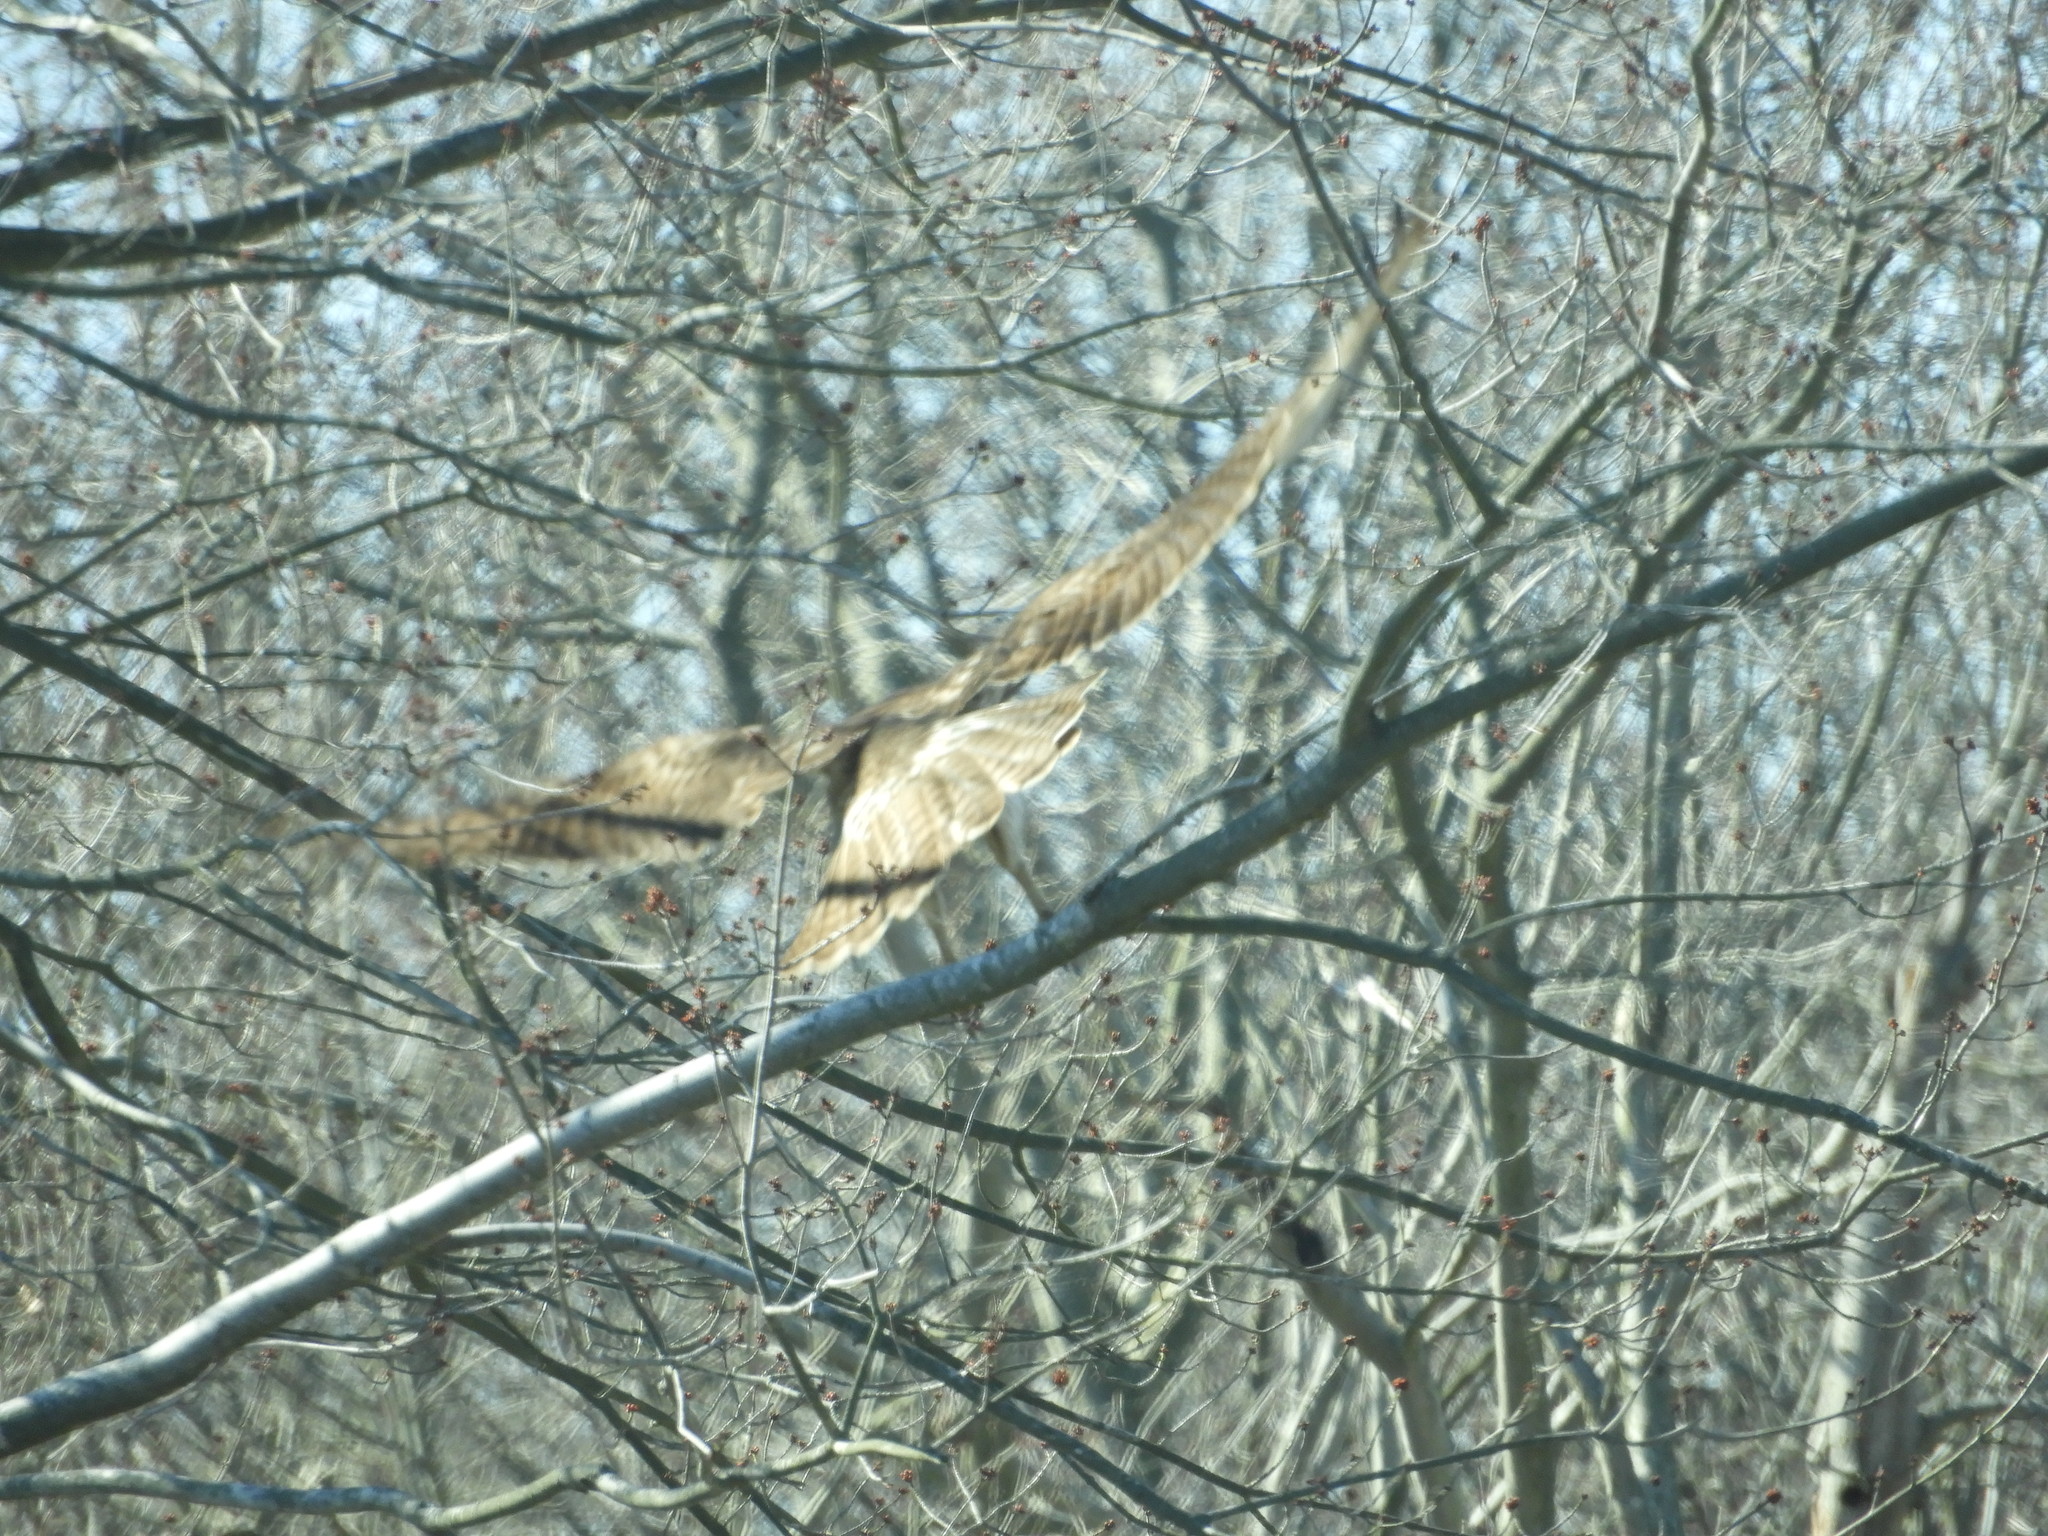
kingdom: Animalia
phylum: Chordata
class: Aves
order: Accipitriformes
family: Accipitridae
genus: Buteo
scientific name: Buteo jamaicensis
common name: Red-tailed hawk
